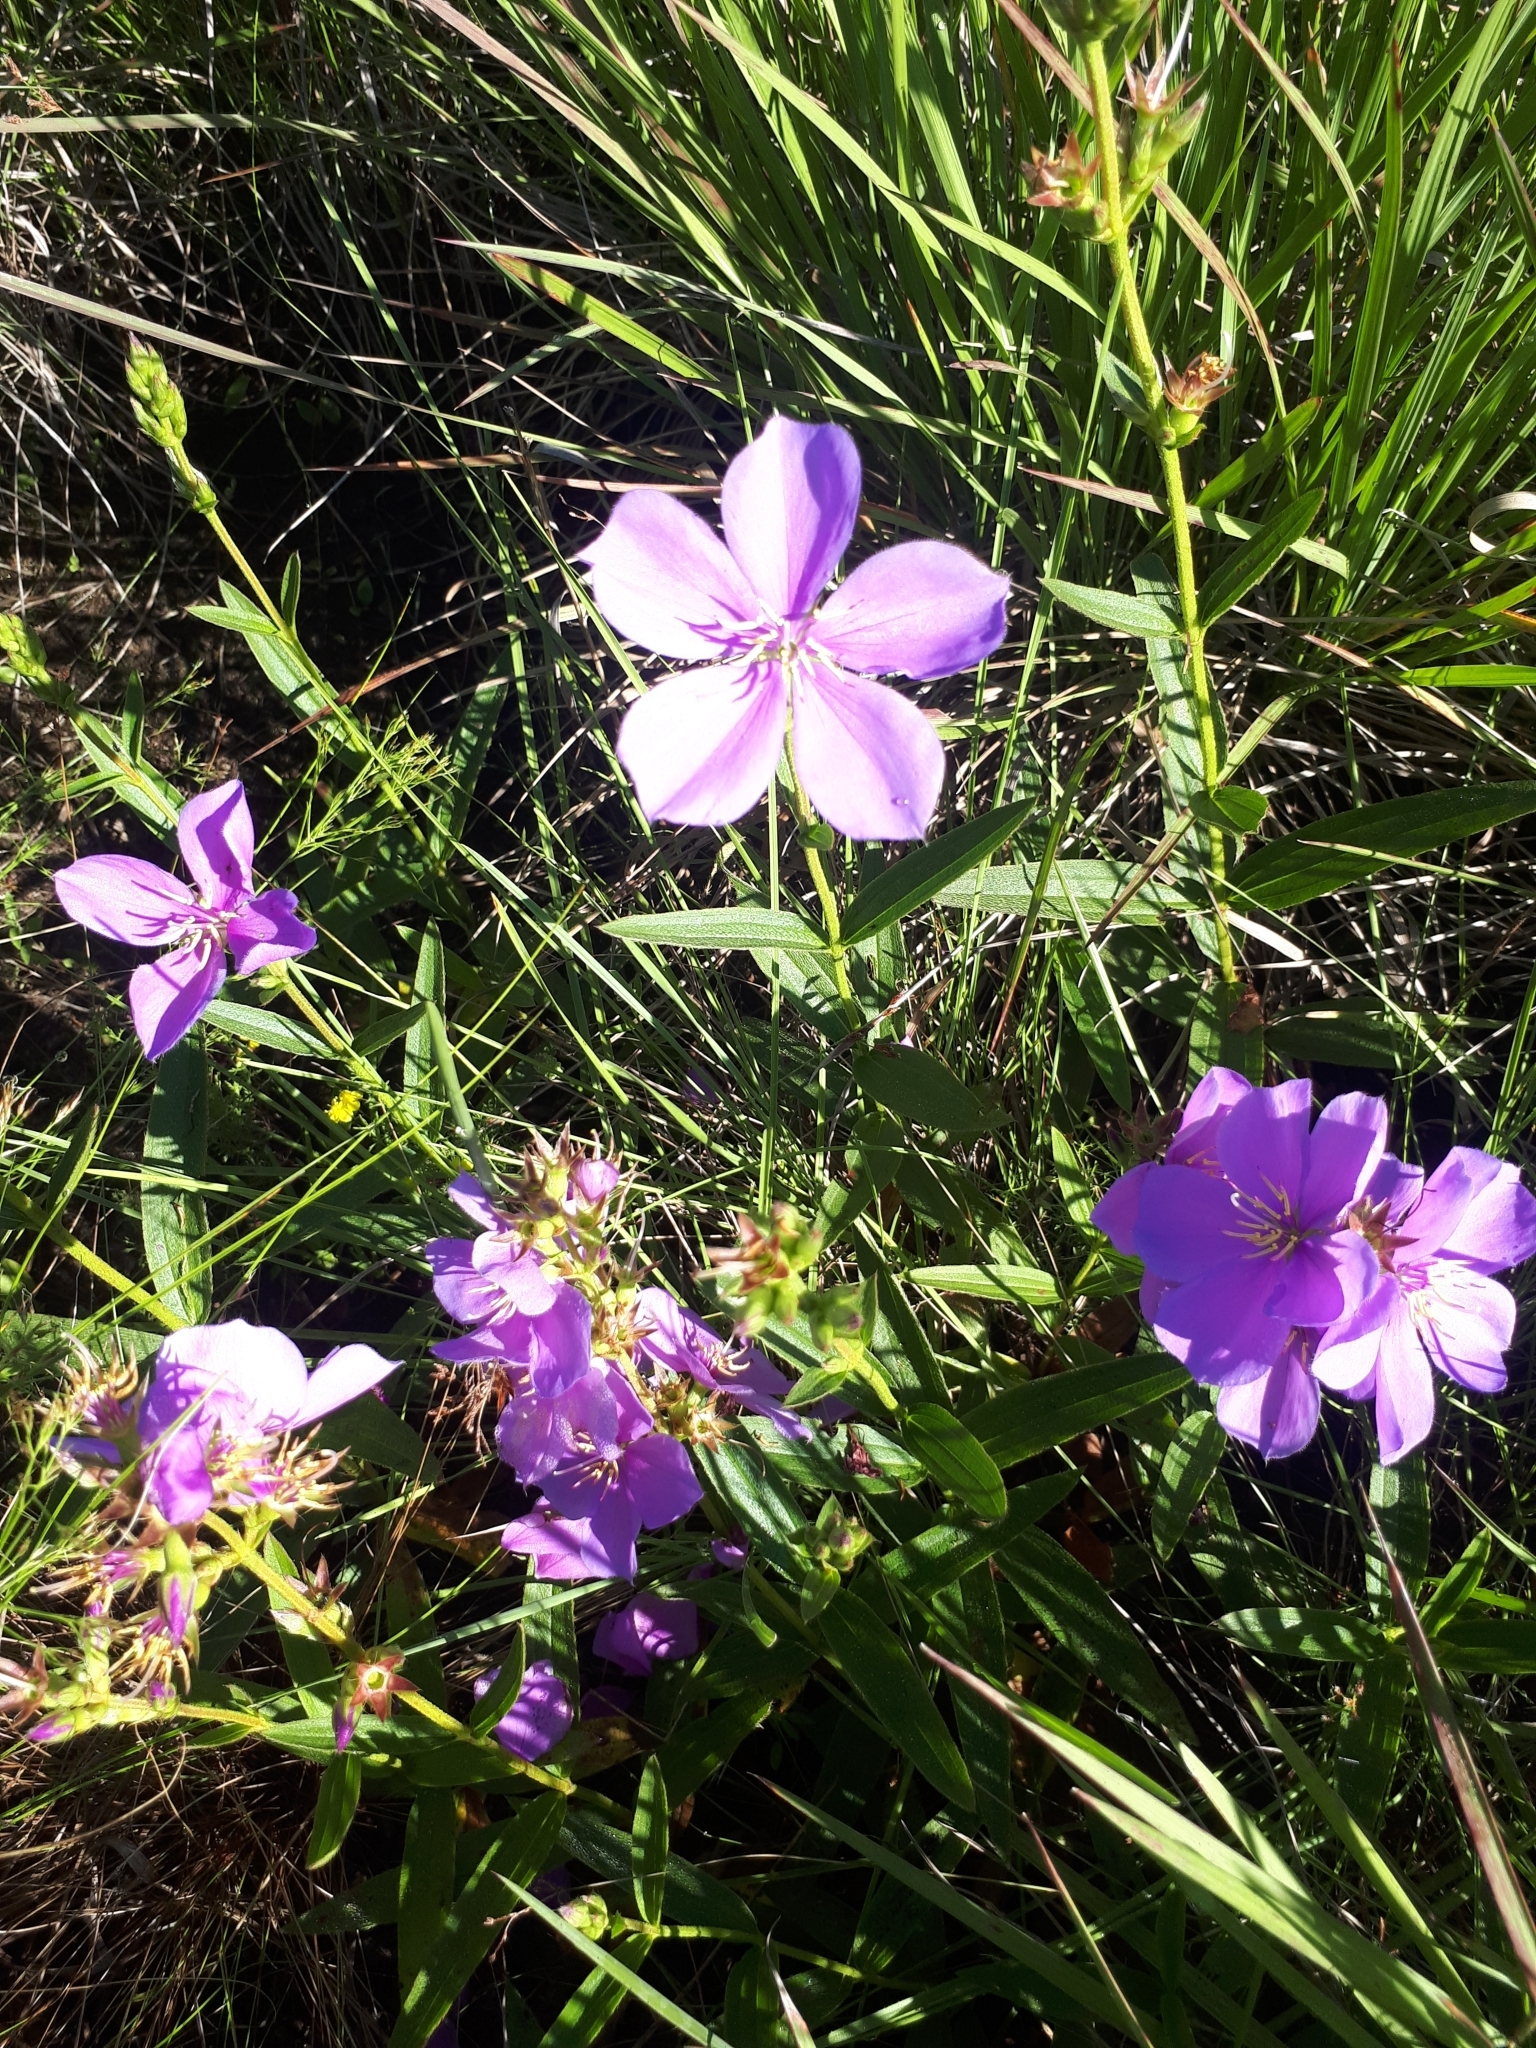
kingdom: Plantae
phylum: Tracheophyta
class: Magnoliopsida
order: Myrtales
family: Melastomataceae
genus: Chaetogastra
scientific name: Chaetogastra gracilis
